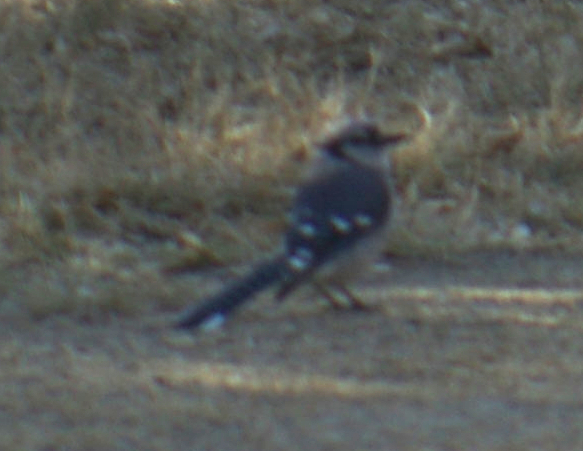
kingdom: Animalia
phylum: Chordata
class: Aves
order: Passeriformes
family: Corvidae
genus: Cyanocitta
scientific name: Cyanocitta cristata
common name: Blue jay
